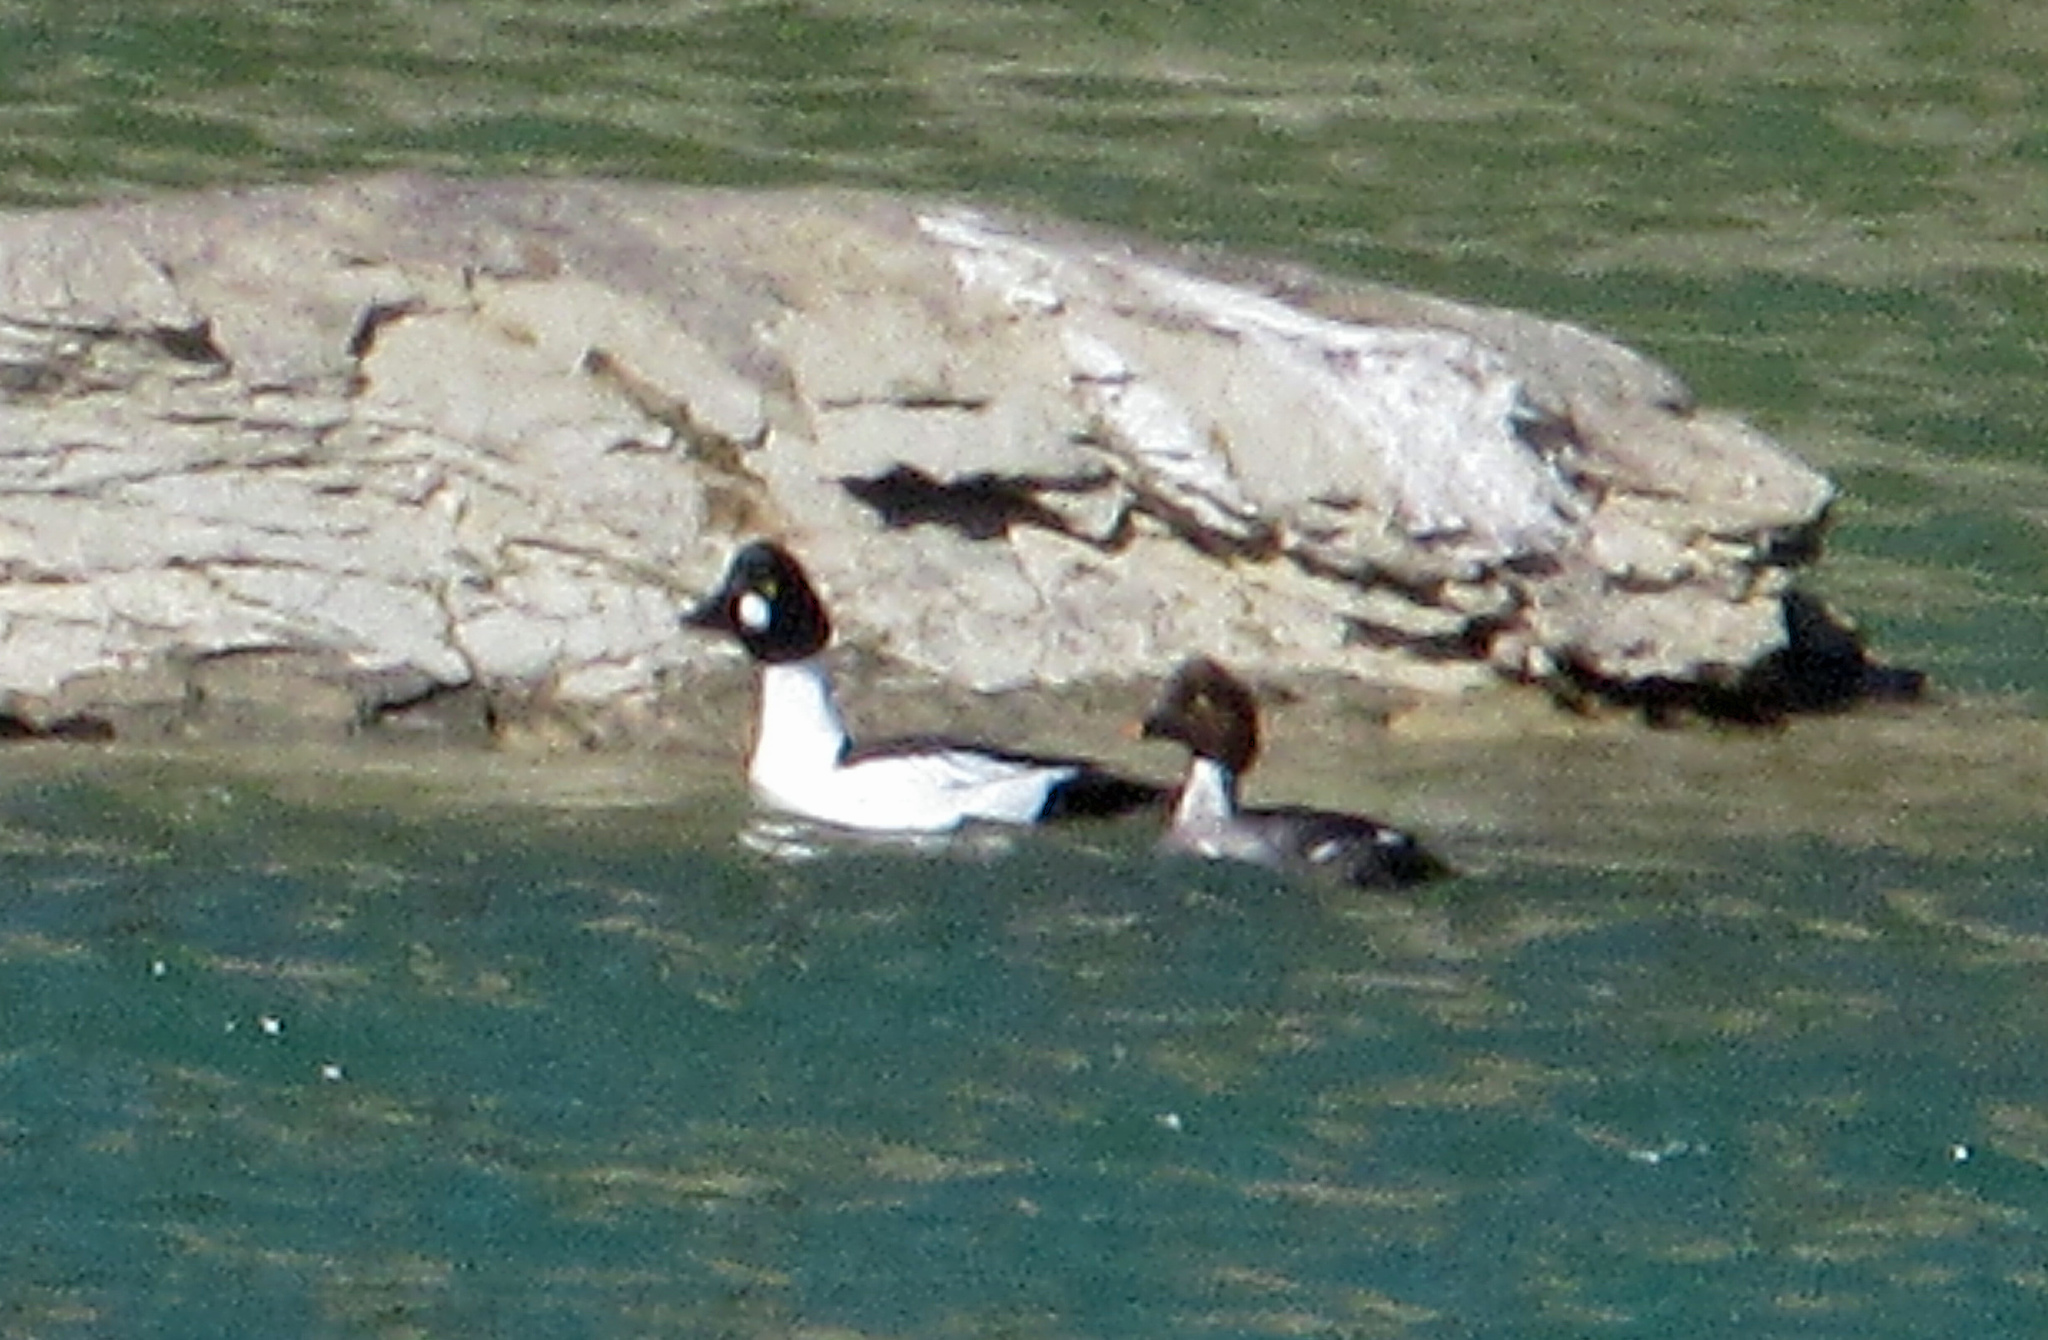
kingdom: Animalia
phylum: Chordata
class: Aves
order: Anseriformes
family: Anatidae
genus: Bucephala
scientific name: Bucephala clangula
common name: Common goldeneye
